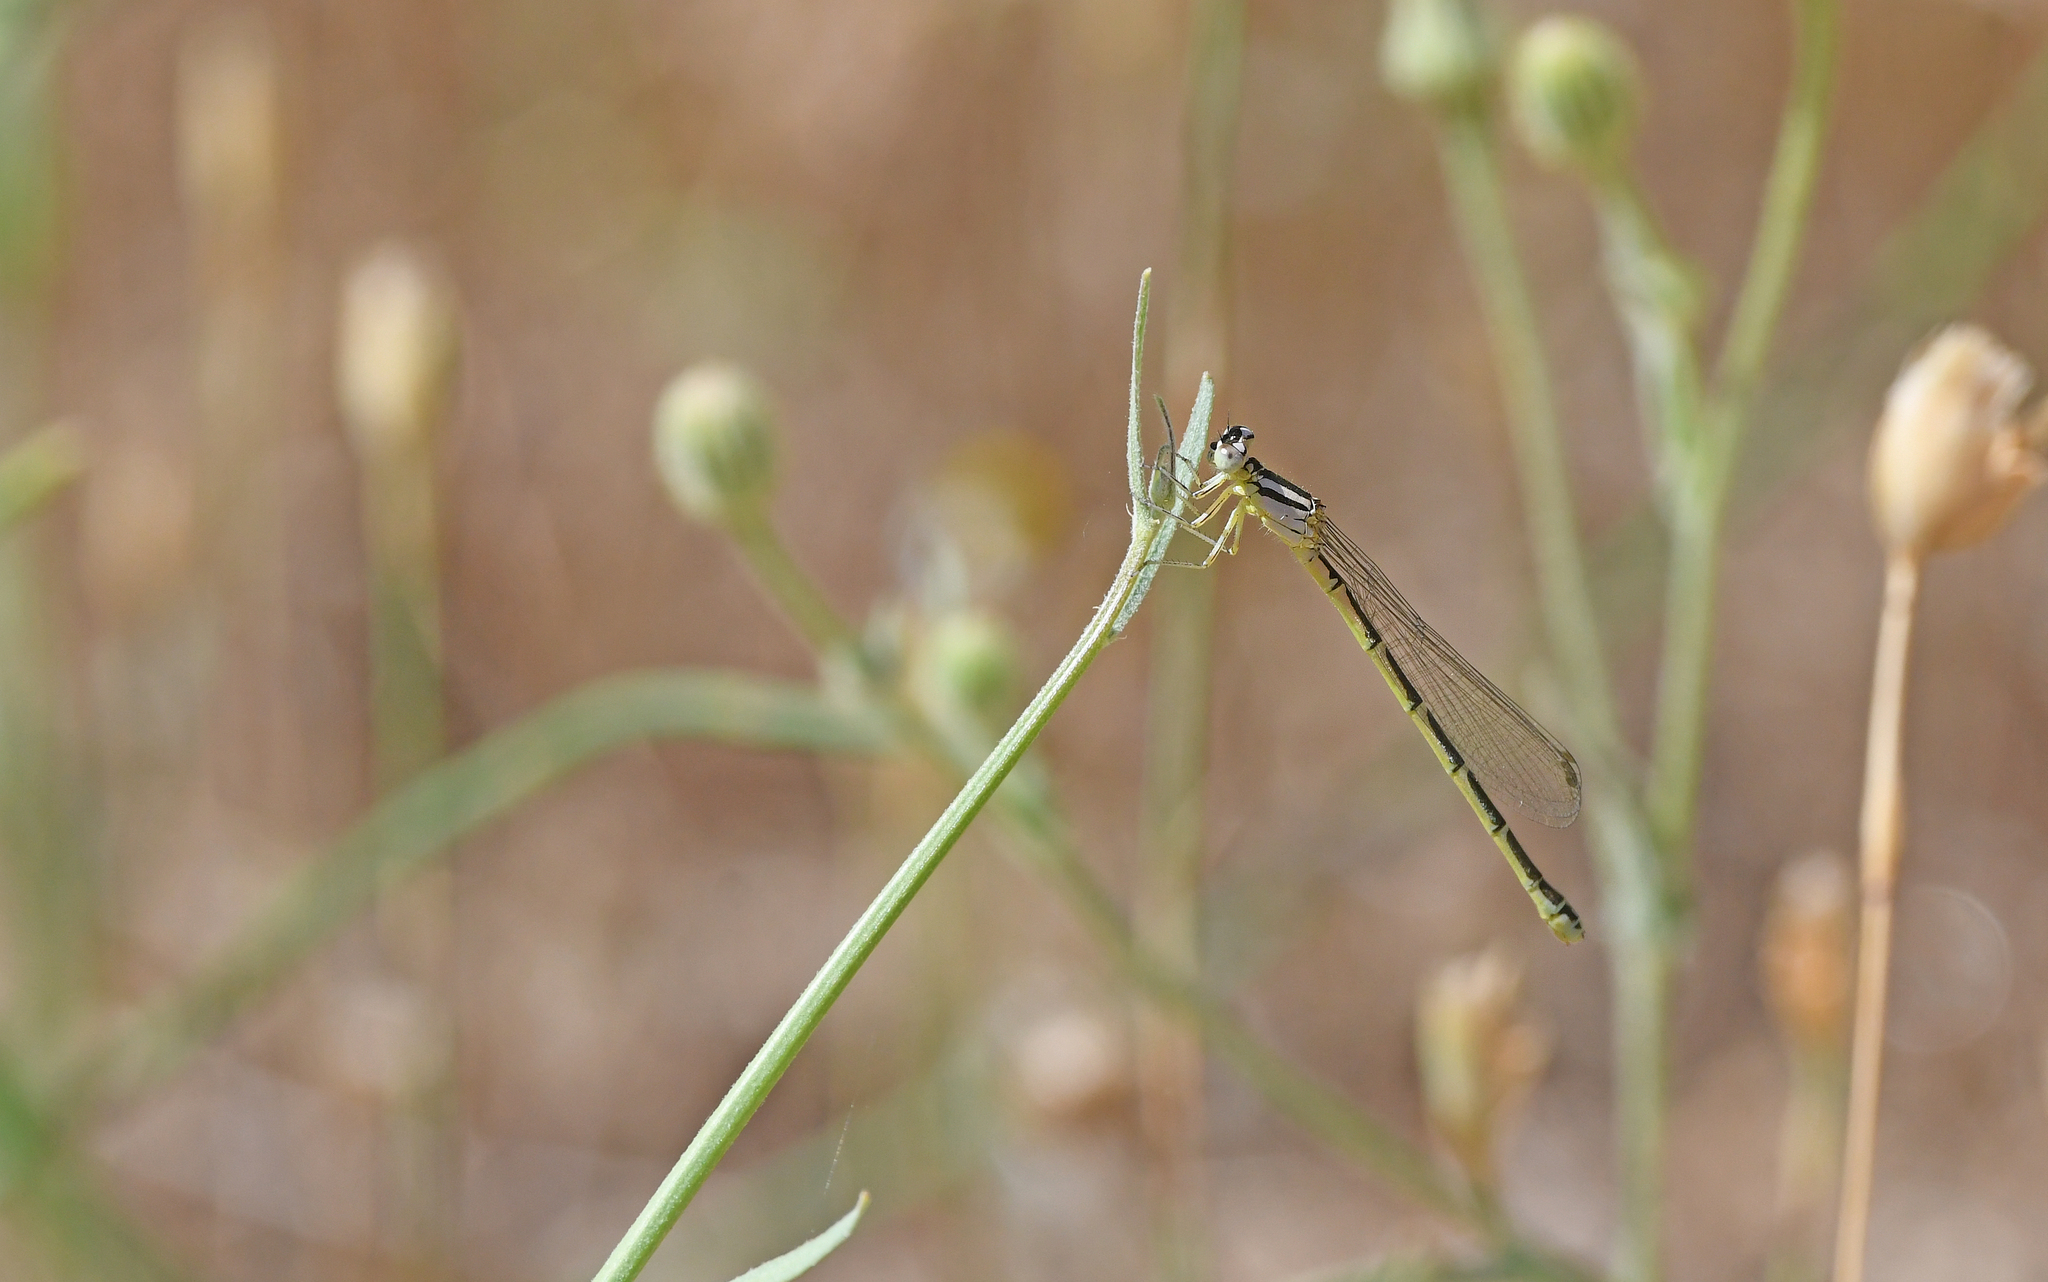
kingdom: Animalia
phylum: Arthropoda
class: Insecta
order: Odonata
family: Coenagrionidae
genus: Coenagrion
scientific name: Coenagrion caerulescens
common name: Mediterranean bluet
